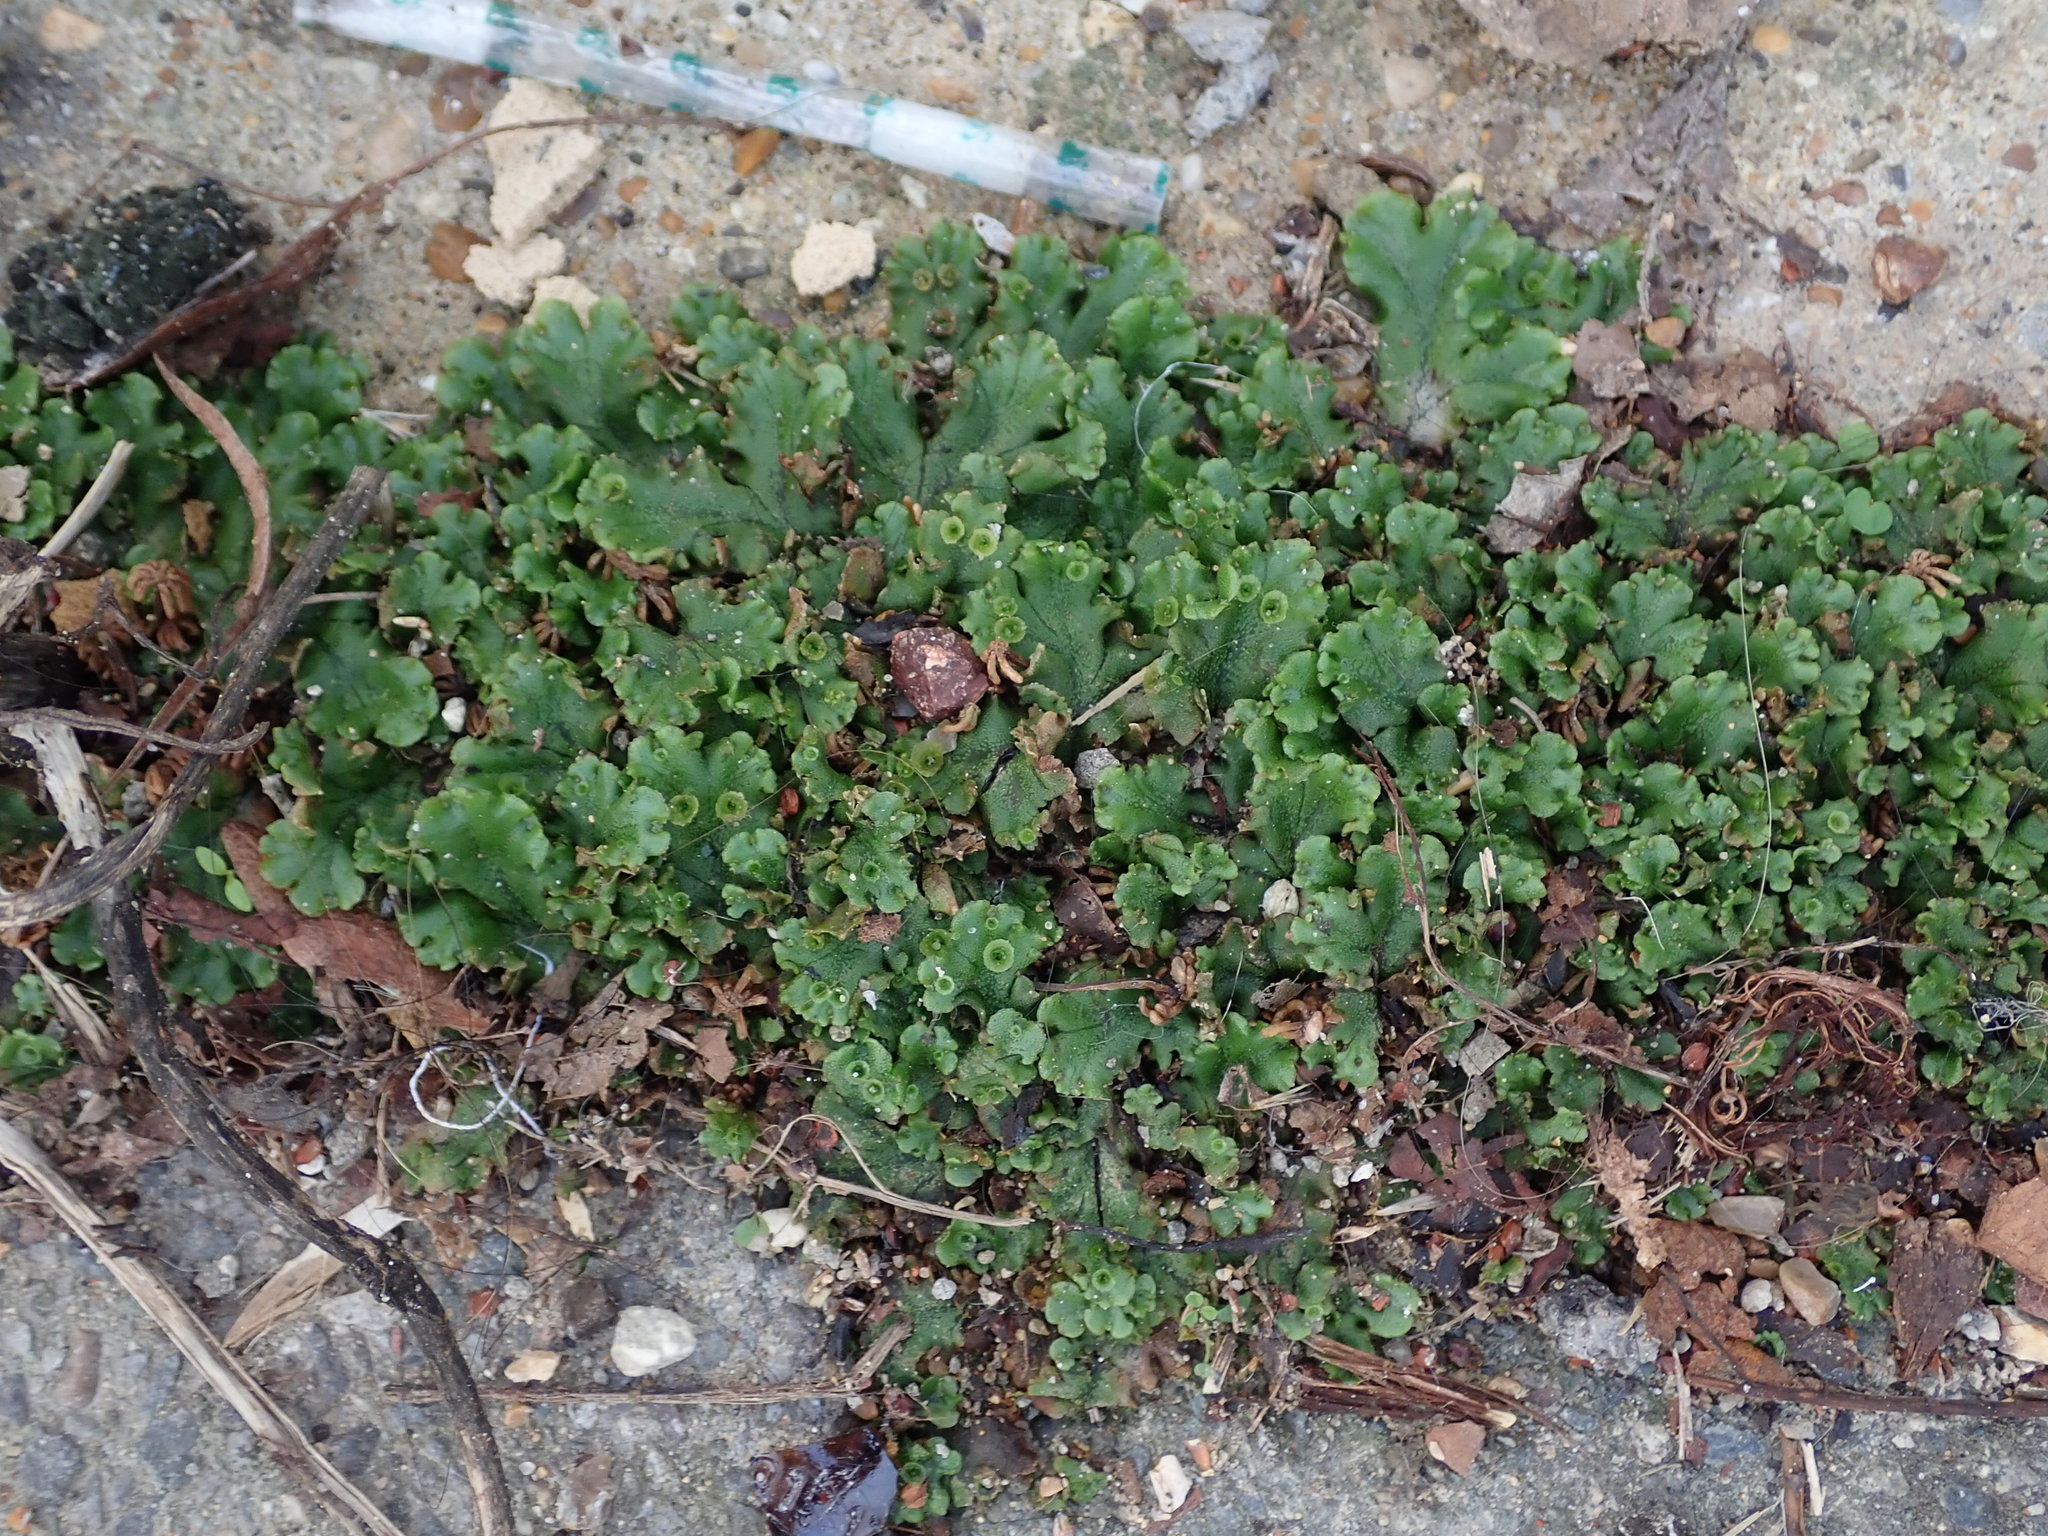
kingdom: Plantae
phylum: Marchantiophyta
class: Marchantiopsida
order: Marchantiales
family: Marchantiaceae
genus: Marchantia
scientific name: Marchantia polymorpha
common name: Common liverwort
